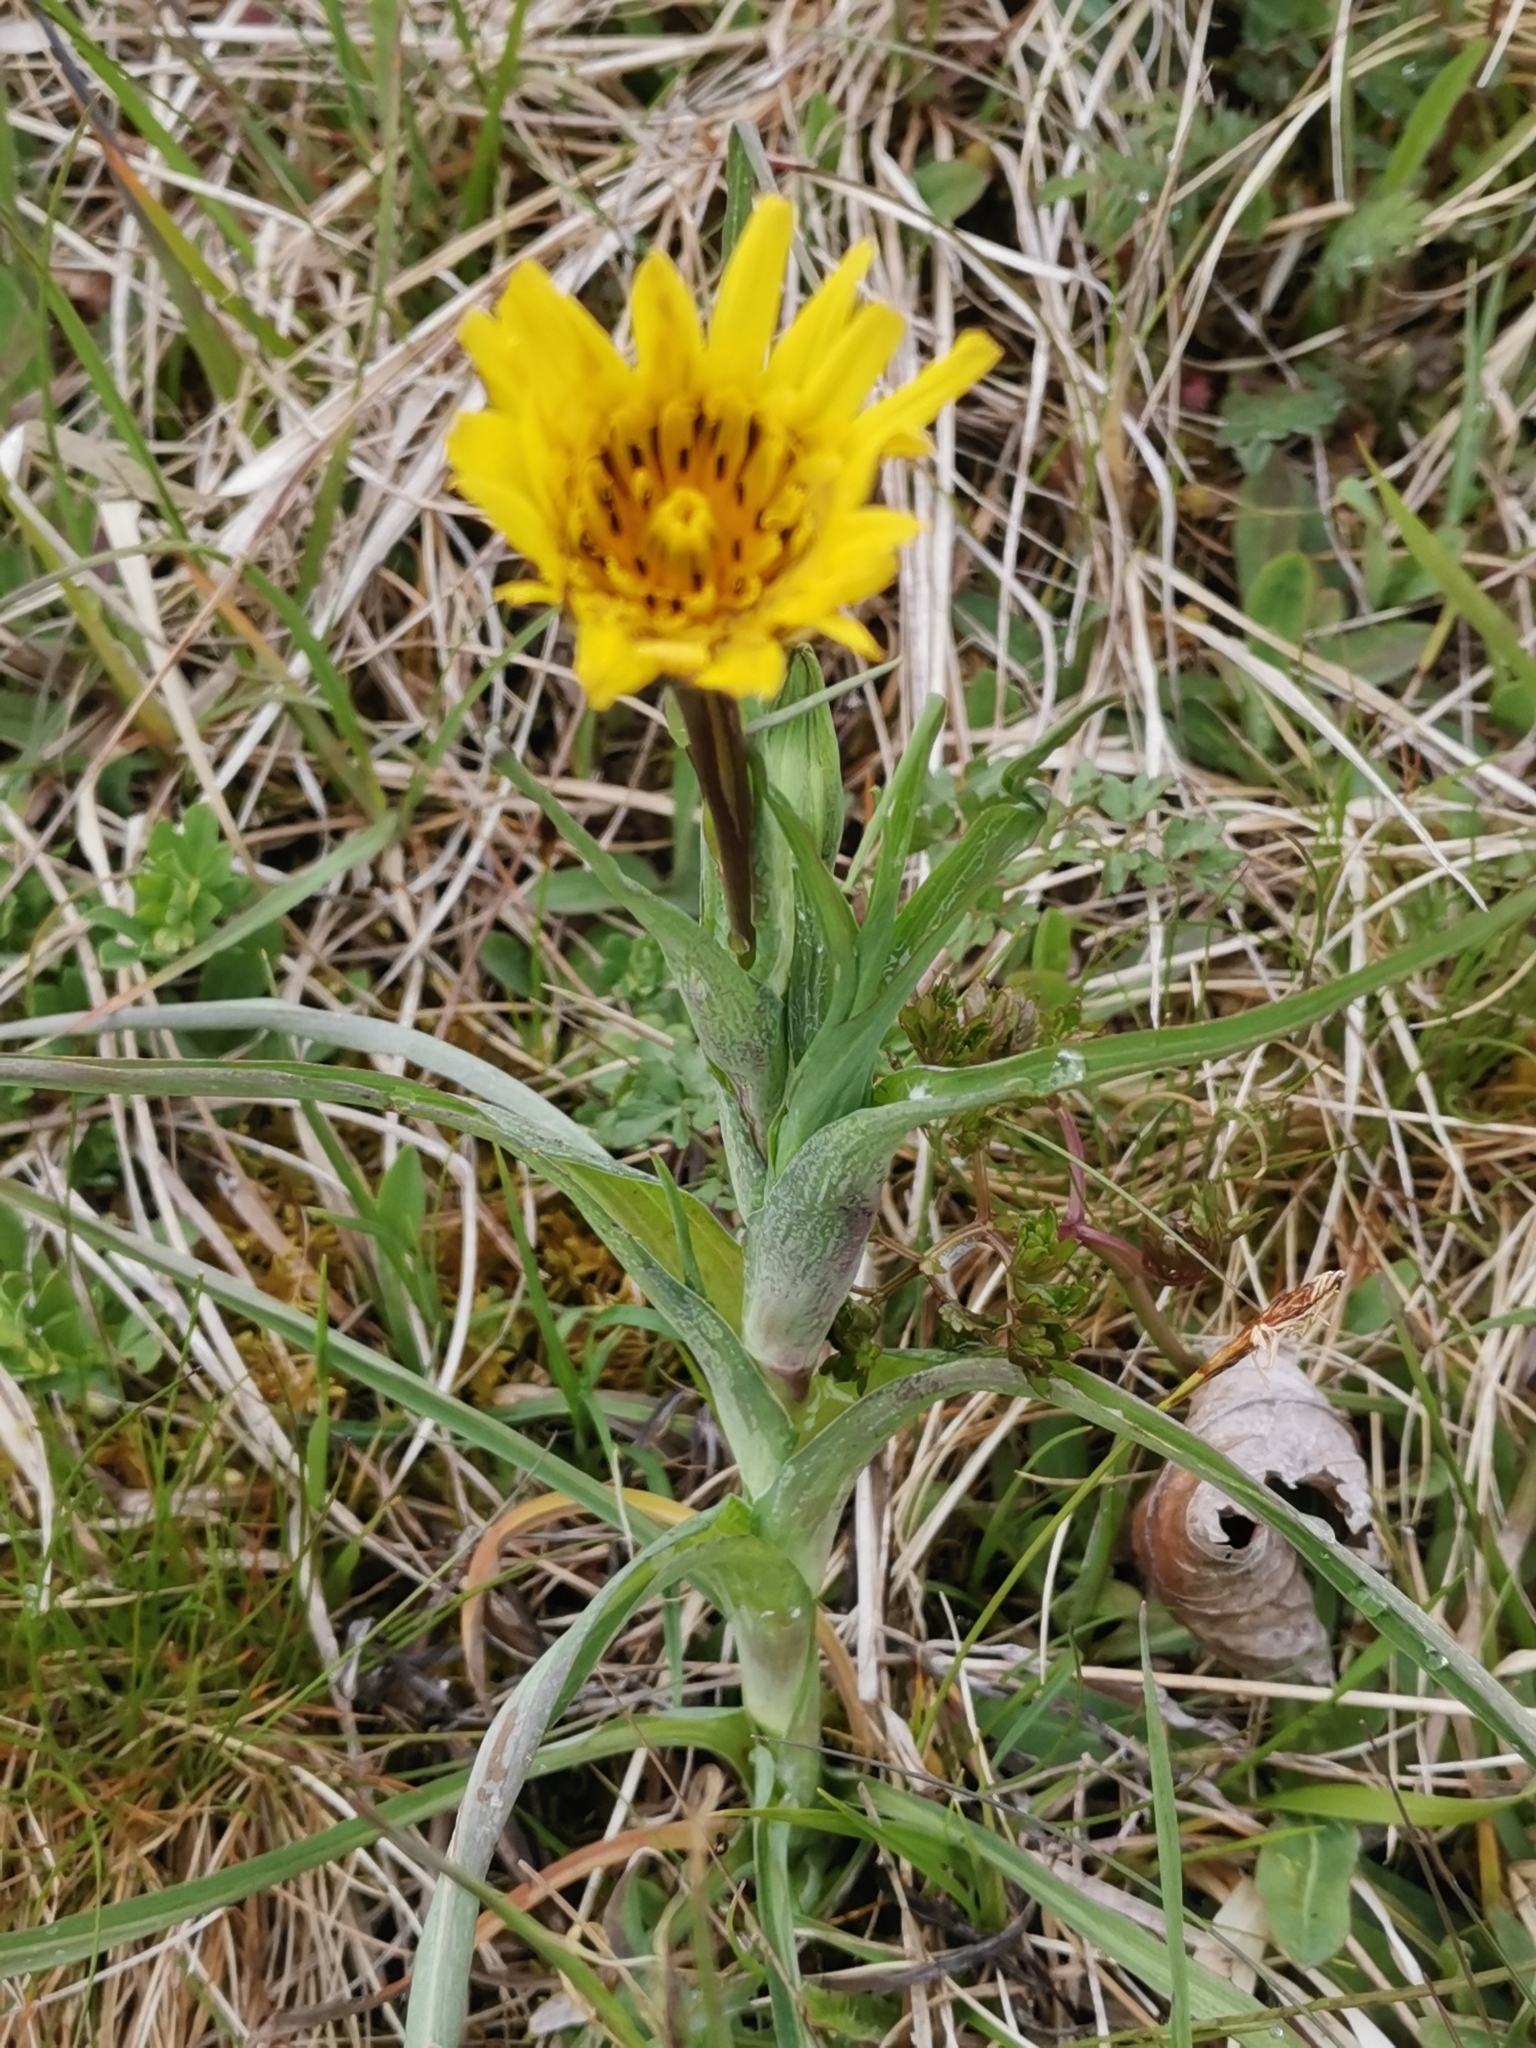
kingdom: Plantae
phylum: Tracheophyta
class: Magnoliopsida
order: Asterales
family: Asteraceae
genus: Tragopogon
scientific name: Tragopogon orientalis
